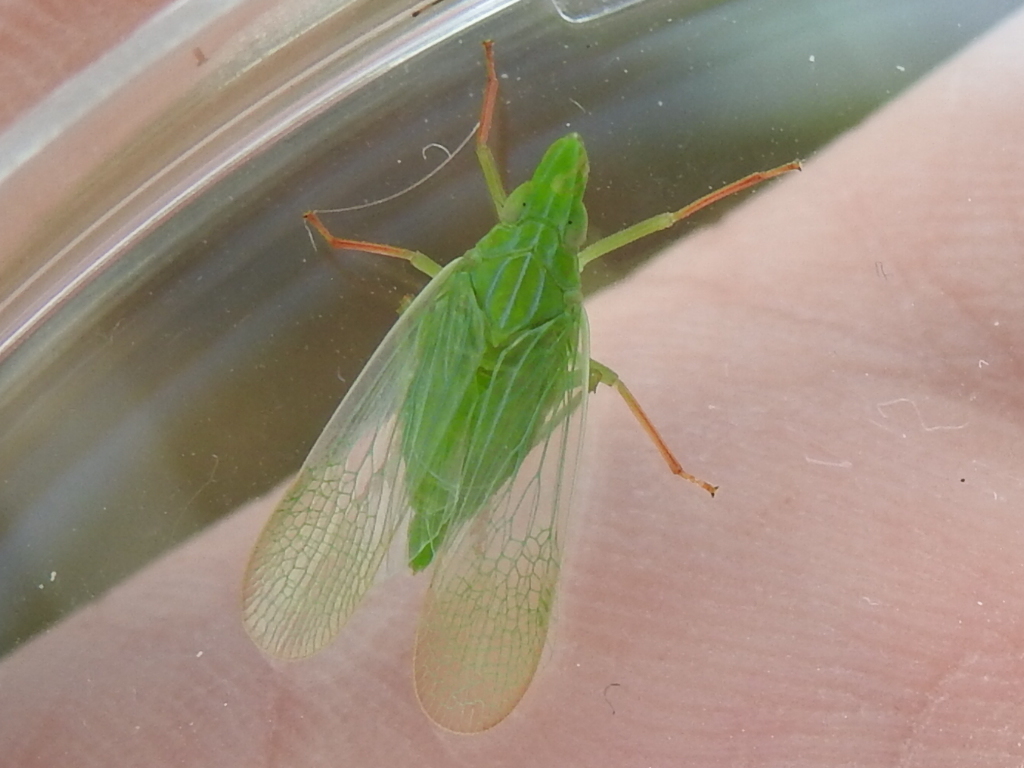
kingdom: Animalia
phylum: Arthropoda
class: Insecta
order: Hemiptera
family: Dictyopharidae
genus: Rhynchomitra
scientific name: Rhynchomitra recurva
